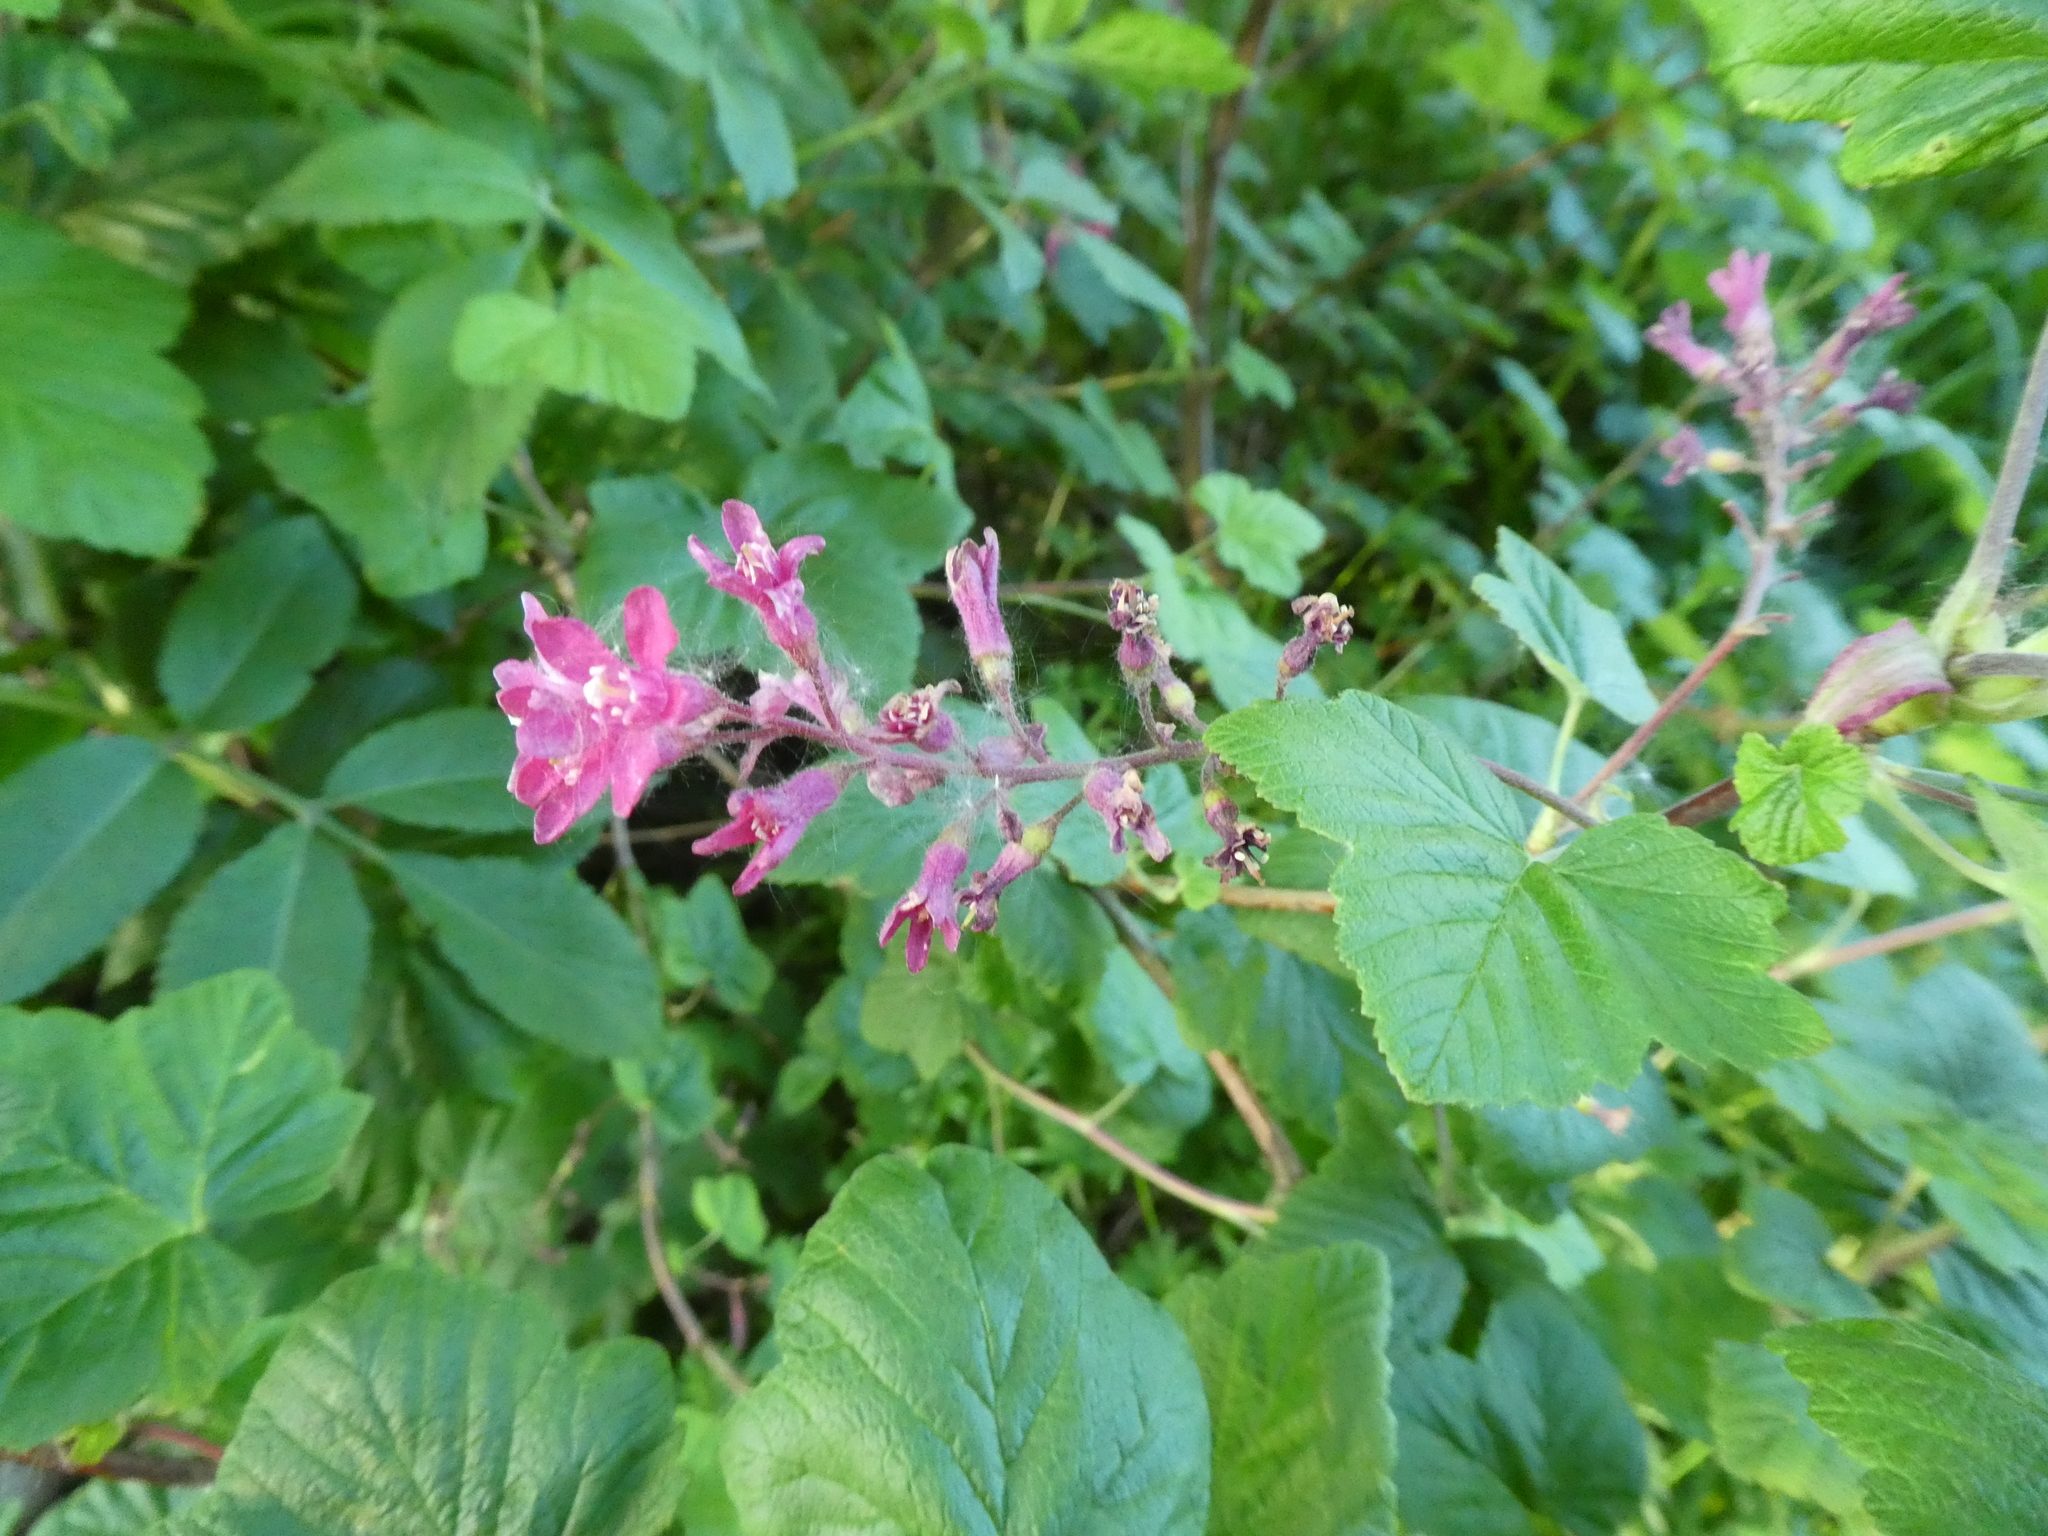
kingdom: Plantae
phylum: Tracheophyta
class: Magnoliopsida
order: Saxifragales
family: Grossulariaceae
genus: Ribes
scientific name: Ribes sanguineum
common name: Flowering currant
